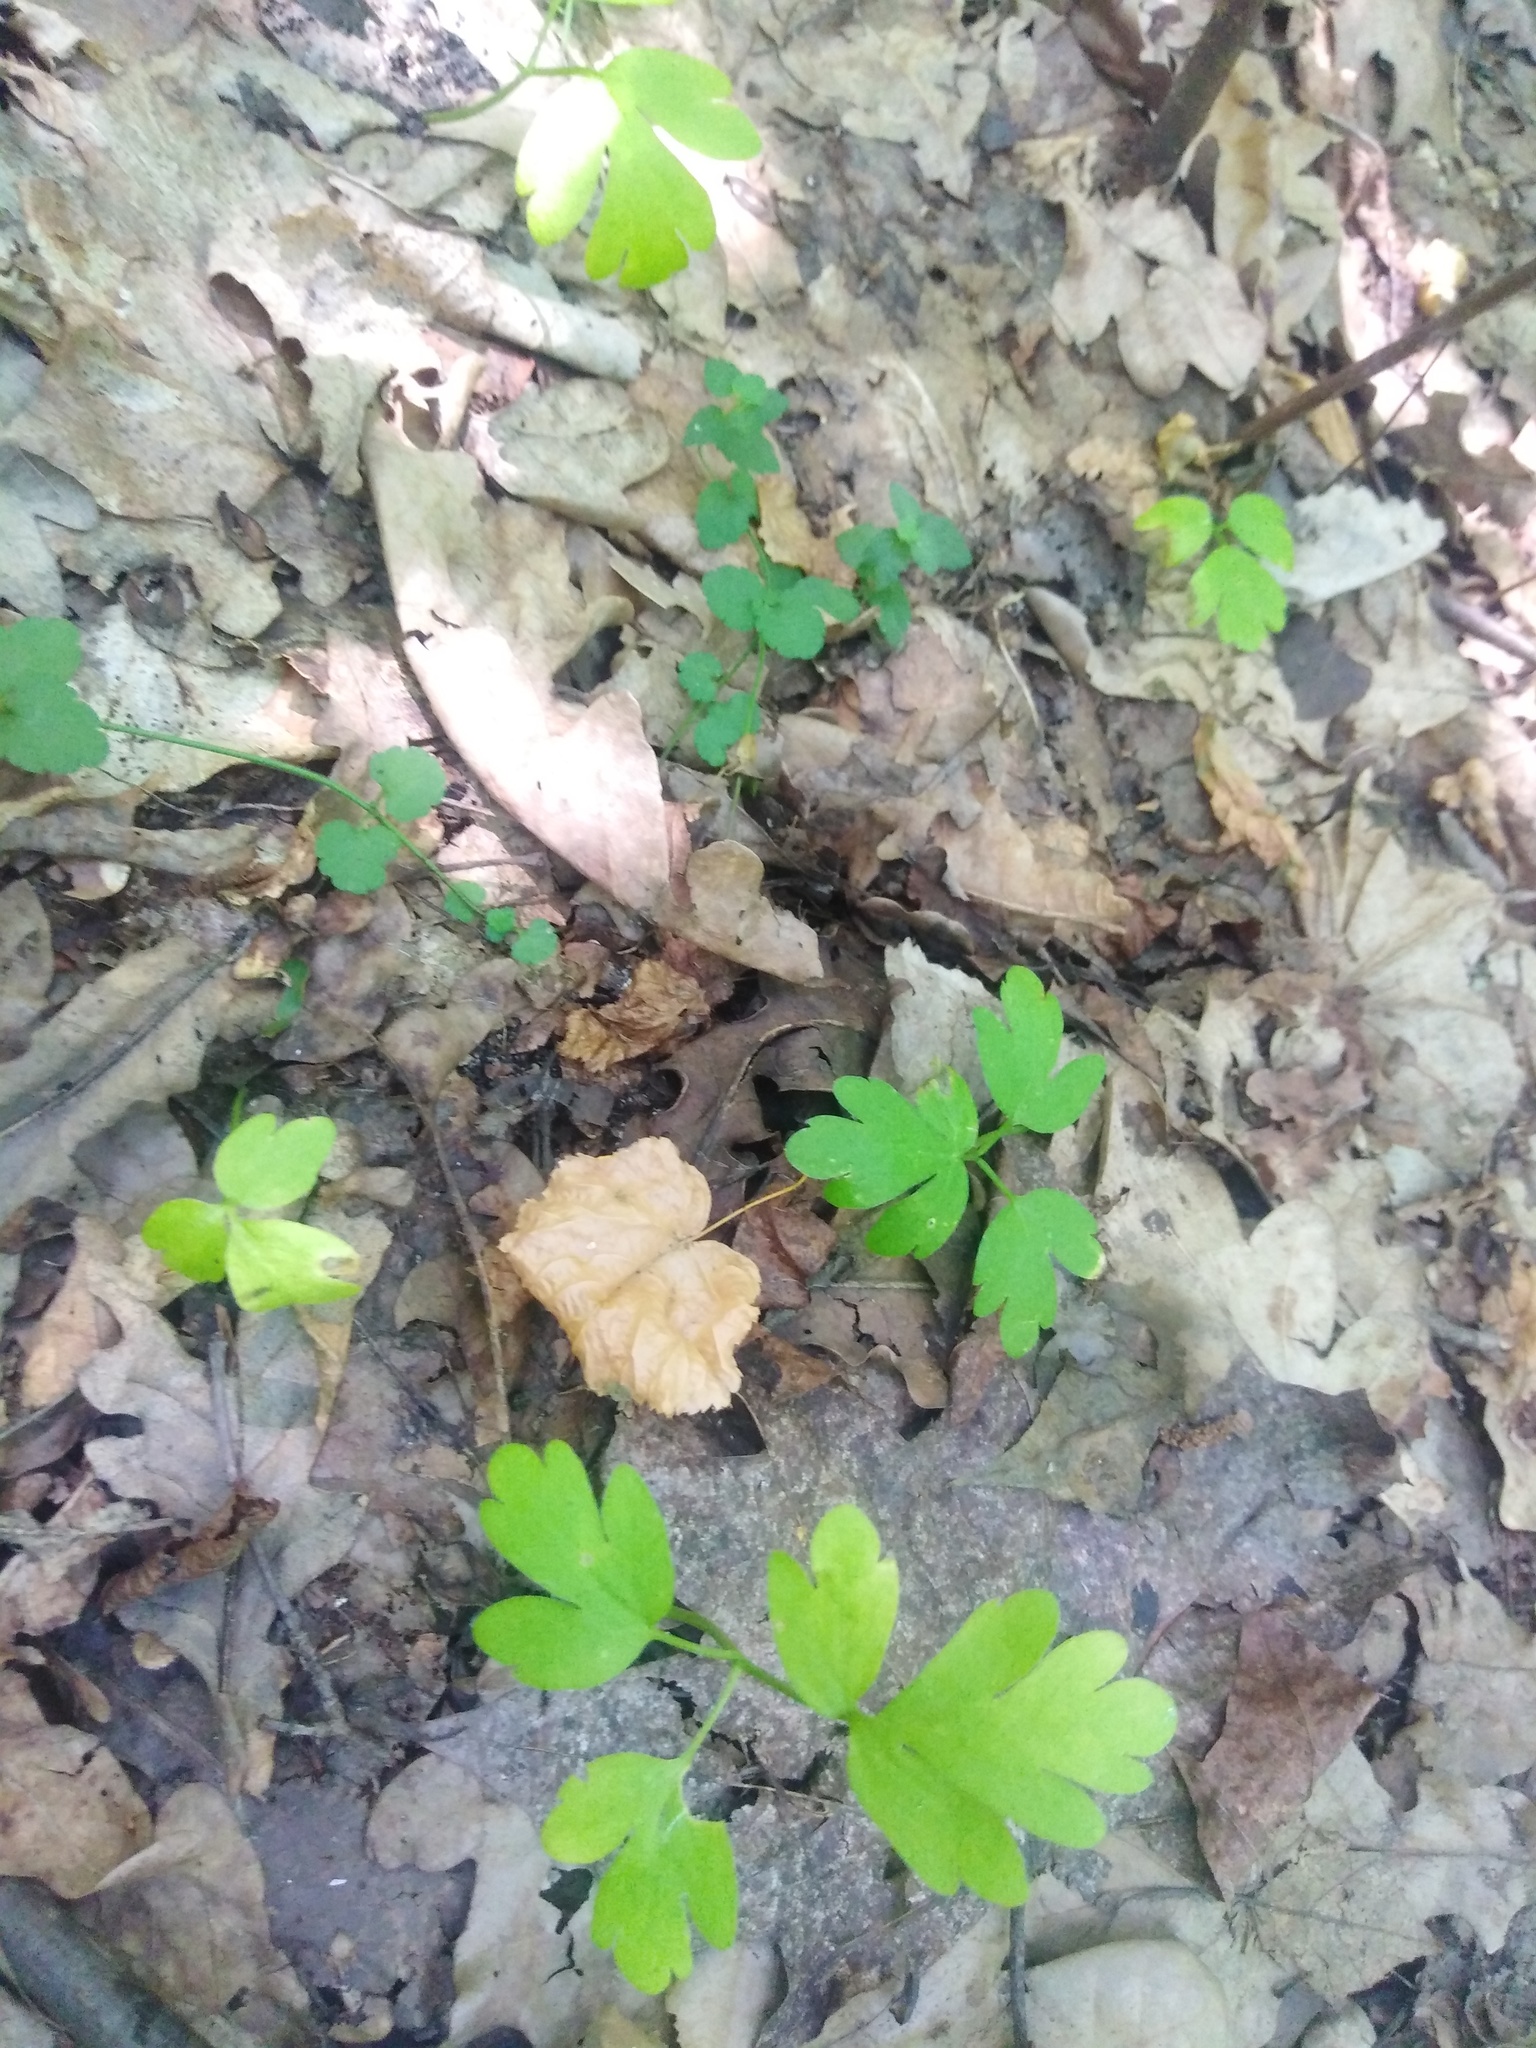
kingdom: Plantae
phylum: Tracheophyta
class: Magnoliopsida
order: Dipsacales
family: Viburnaceae
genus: Adoxa
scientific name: Adoxa moschatellina
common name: Moschatel
